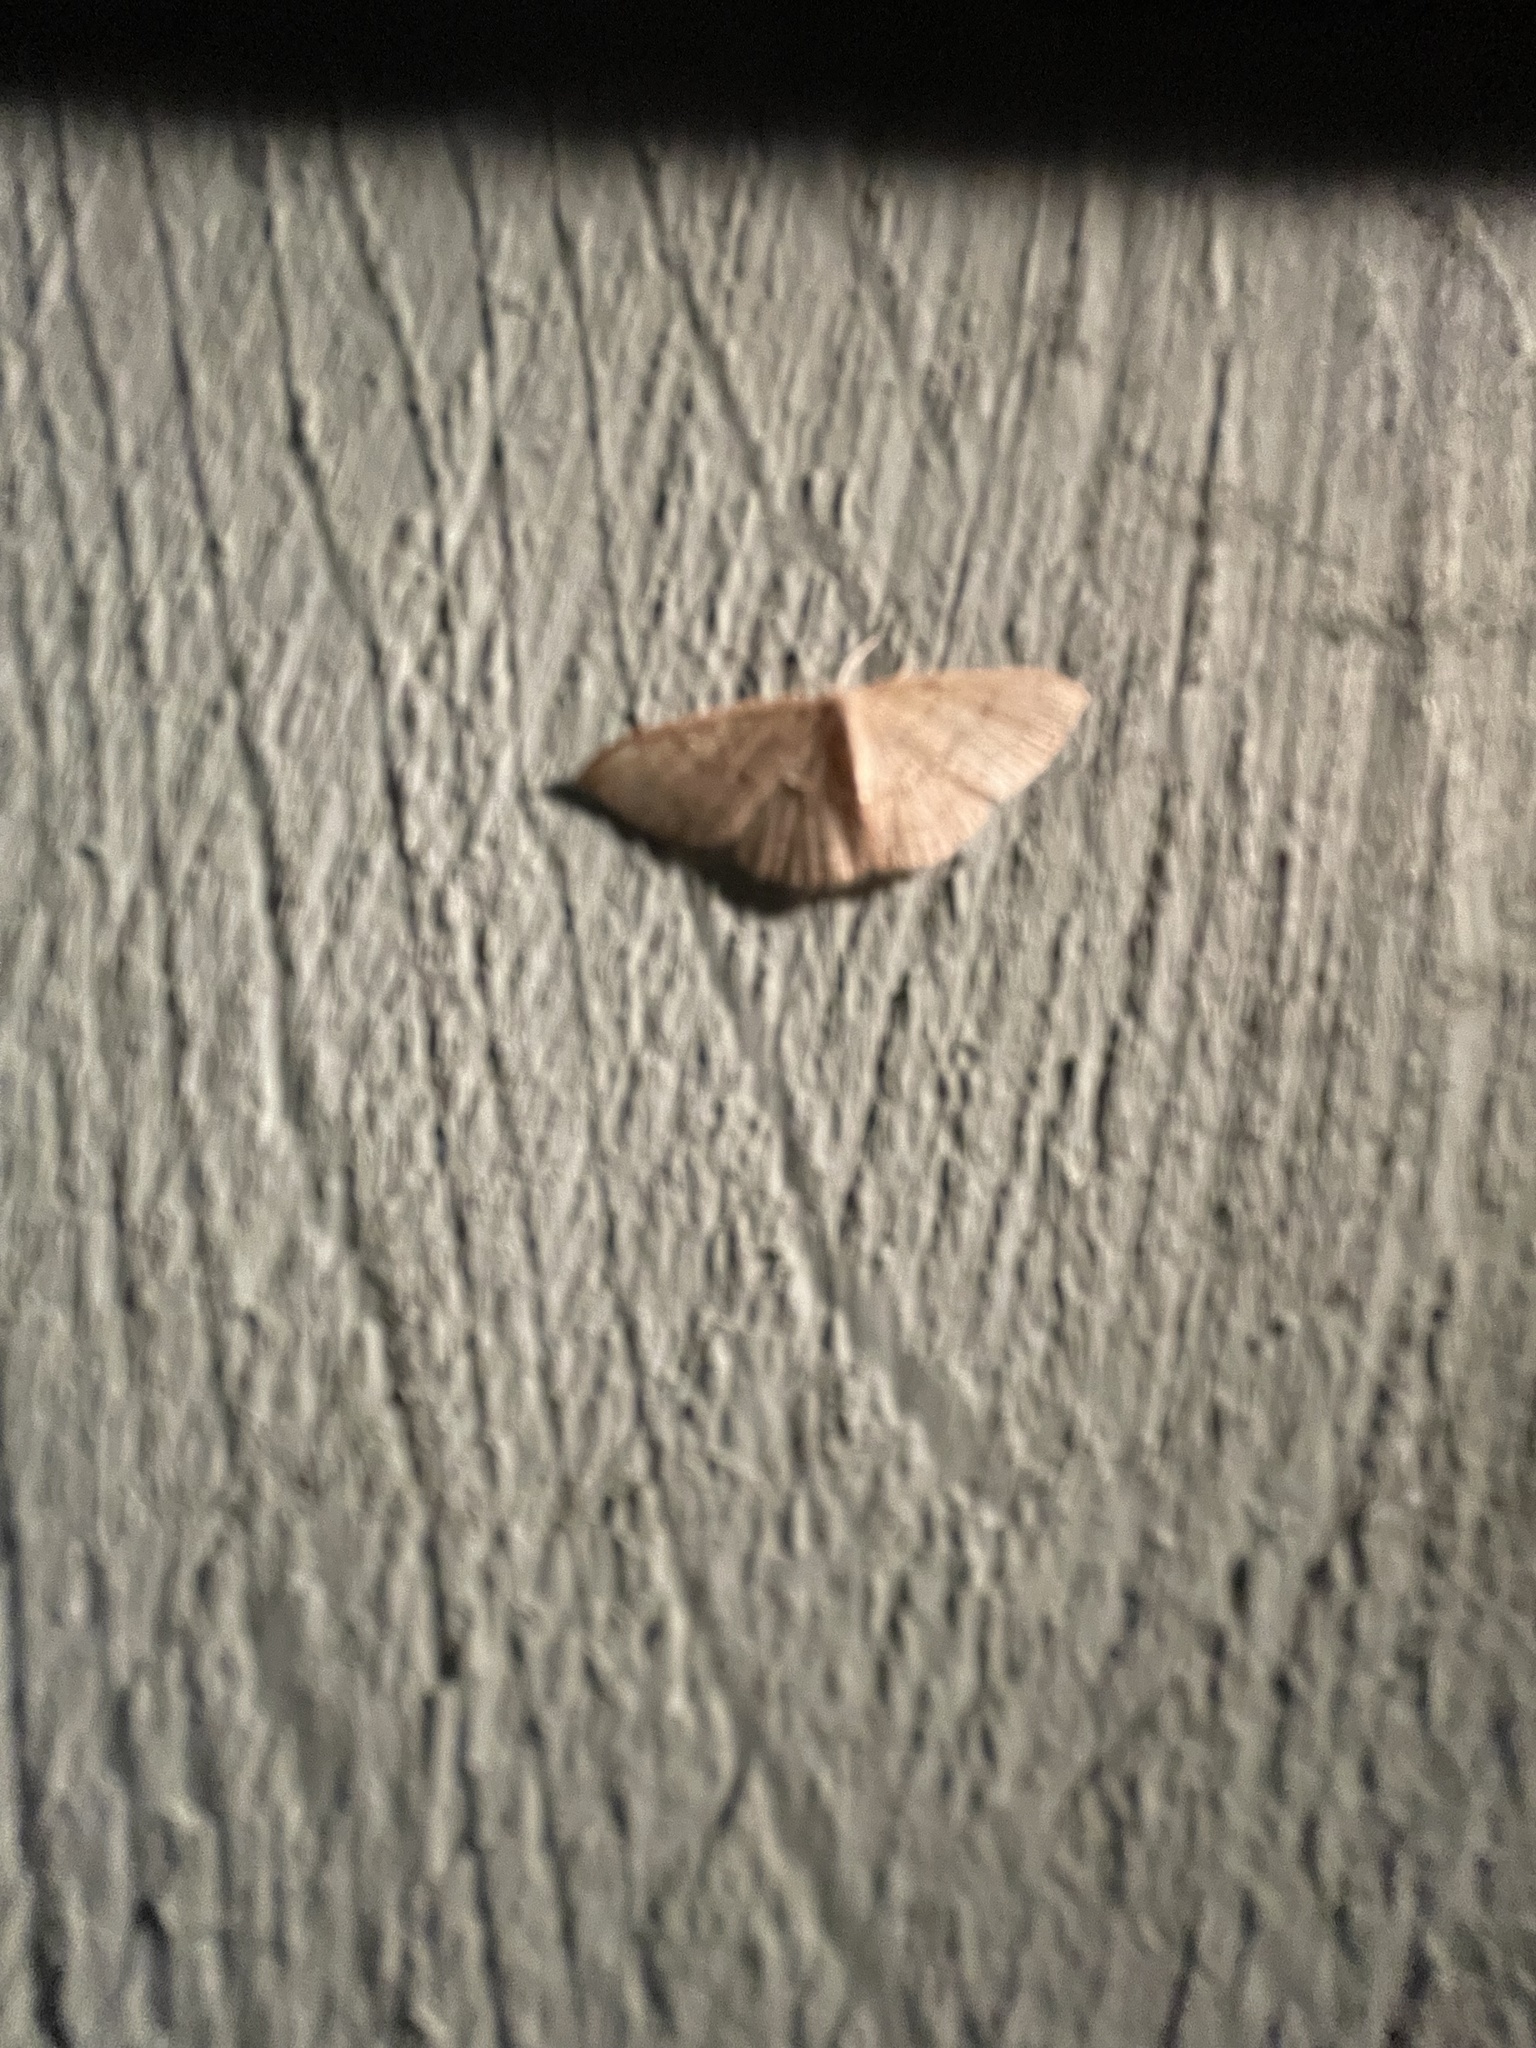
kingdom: Animalia
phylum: Arthropoda
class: Insecta
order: Lepidoptera
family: Geometridae
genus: Pleuroprucha
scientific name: Pleuroprucha insulsaria
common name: Common tan wave
